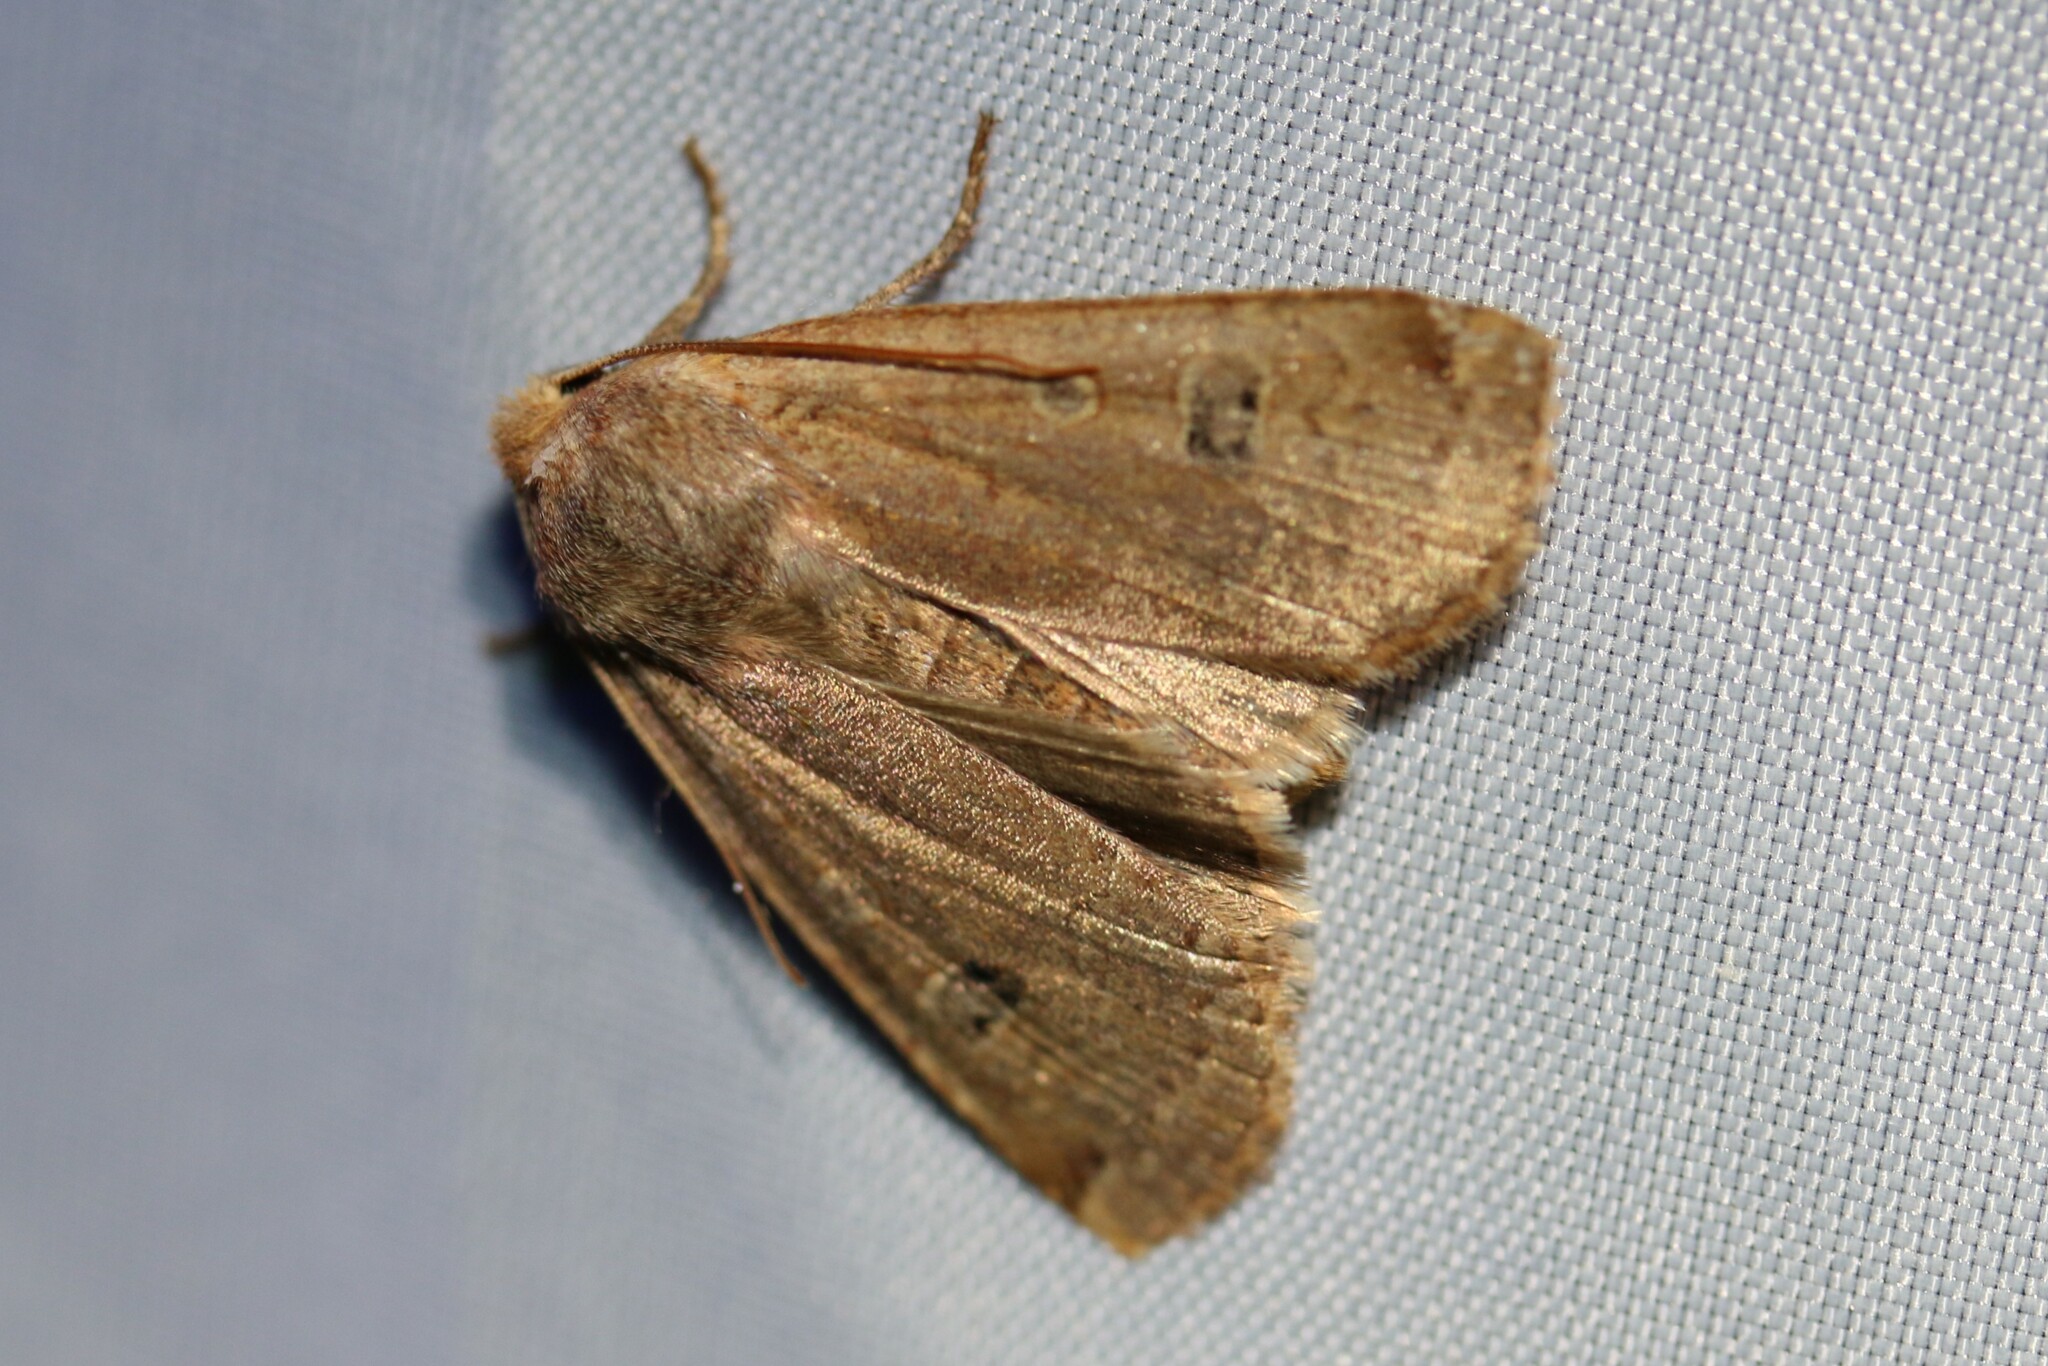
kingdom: Animalia
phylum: Arthropoda
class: Insecta
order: Lepidoptera
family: Noctuidae
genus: Conistra
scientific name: Conistra erythrocephala
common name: Red-headed chestnut
